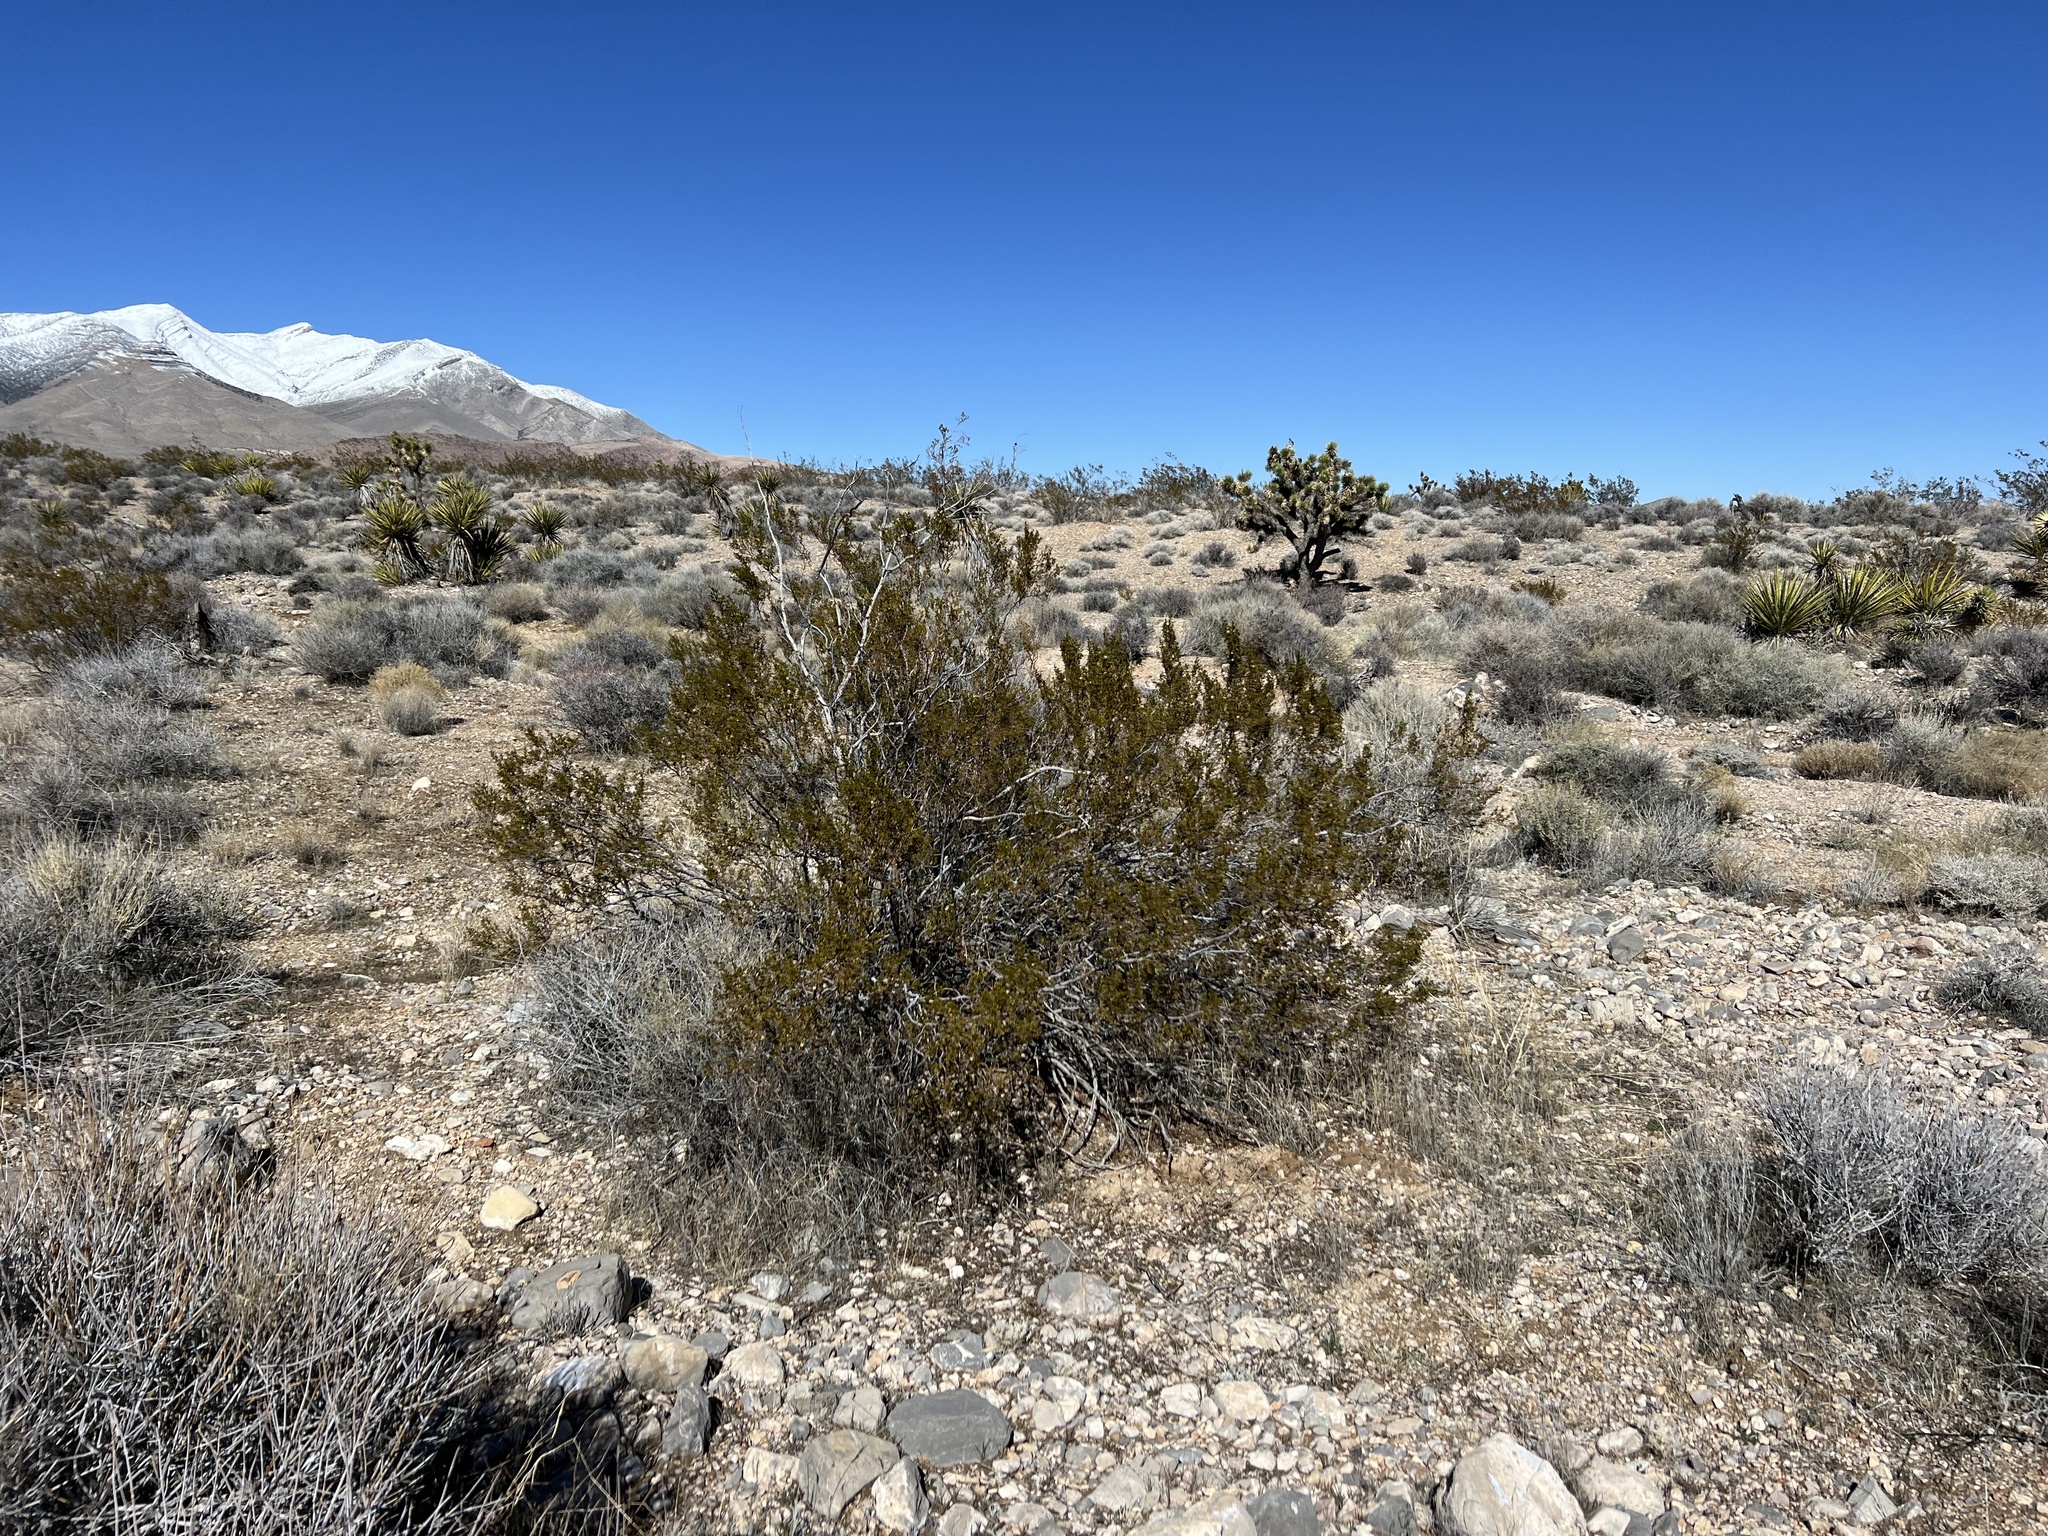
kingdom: Plantae
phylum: Tracheophyta
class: Magnoliopsida
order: Zygophyllales
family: Zygophyllaceae
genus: Larrea
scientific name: Larrea tridentata
